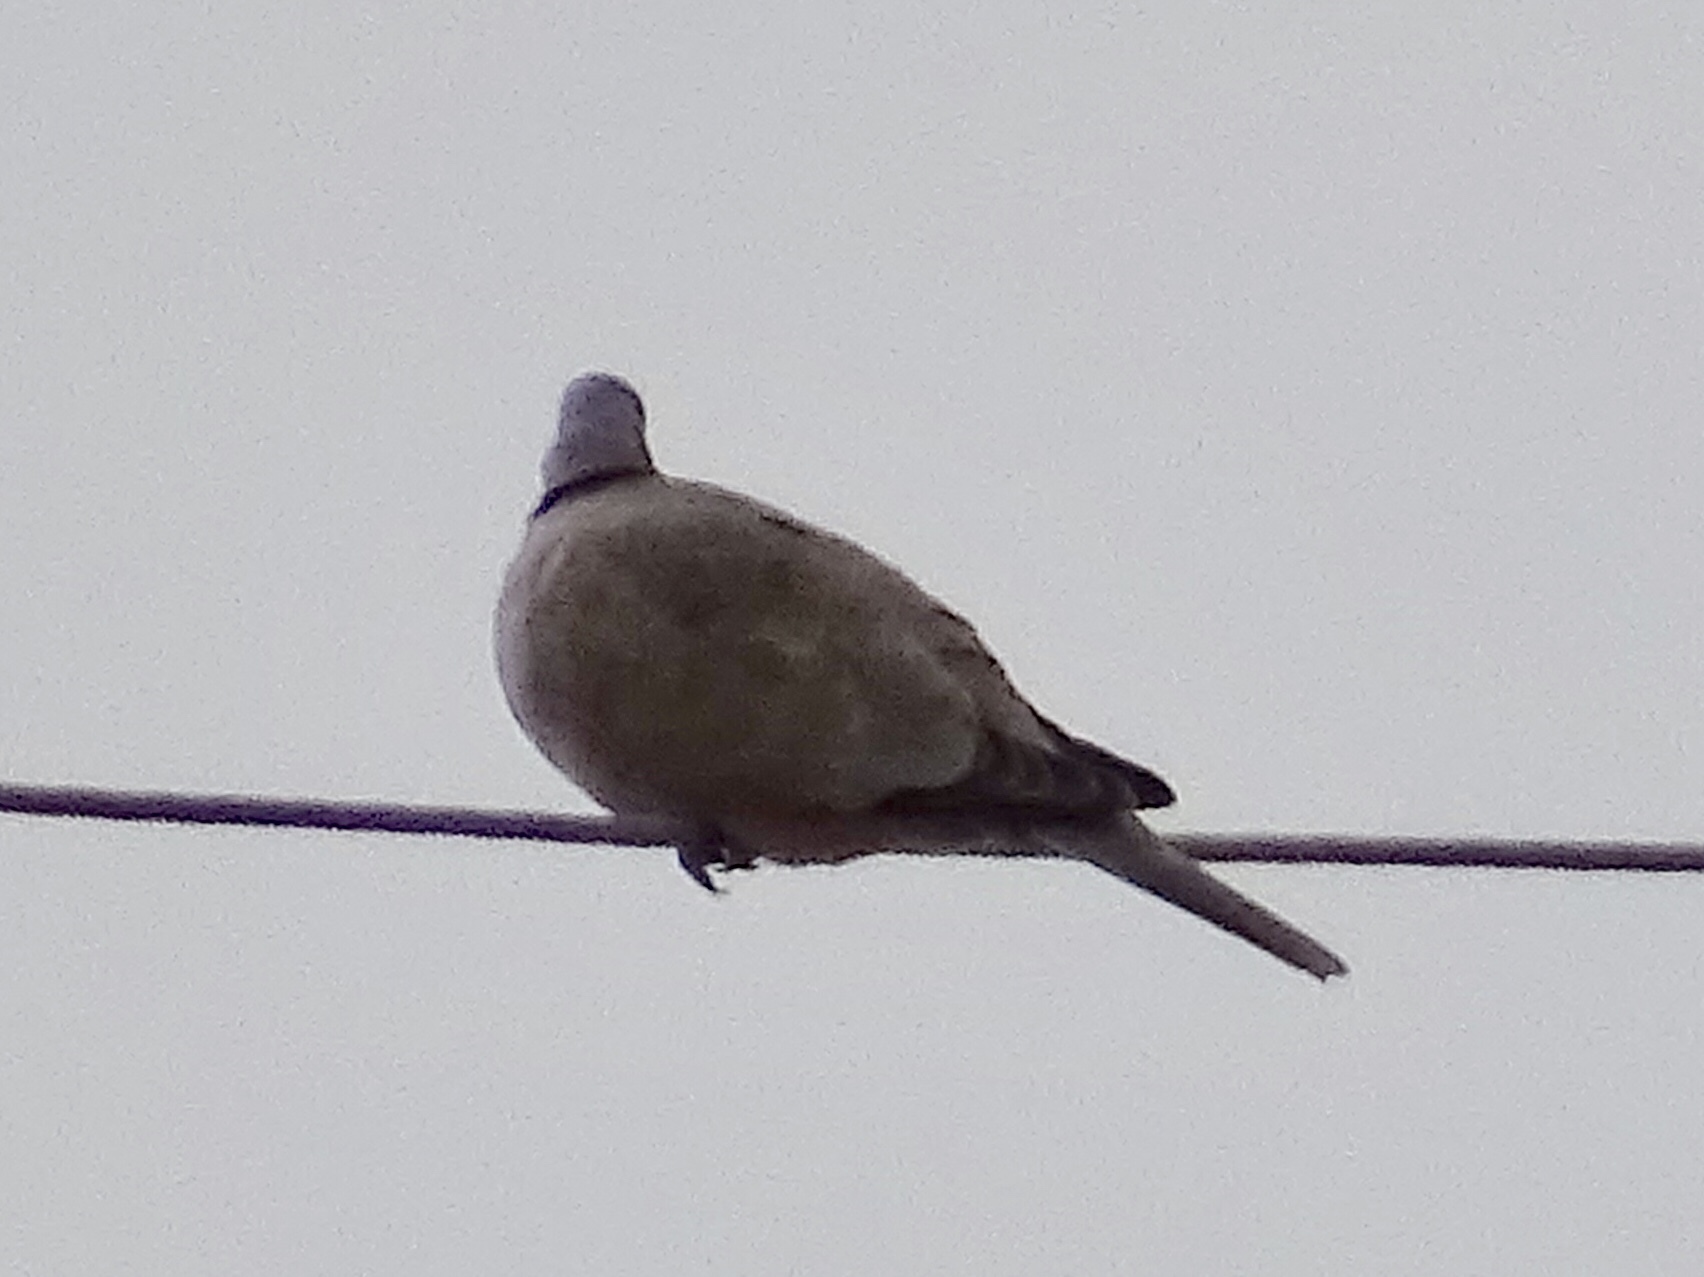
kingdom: Animalia
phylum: Chordata
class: Aves
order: Columbiformes
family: Columbidae
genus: Streptopelia
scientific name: Streptopelia decaocto
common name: Eurasian collared dove
